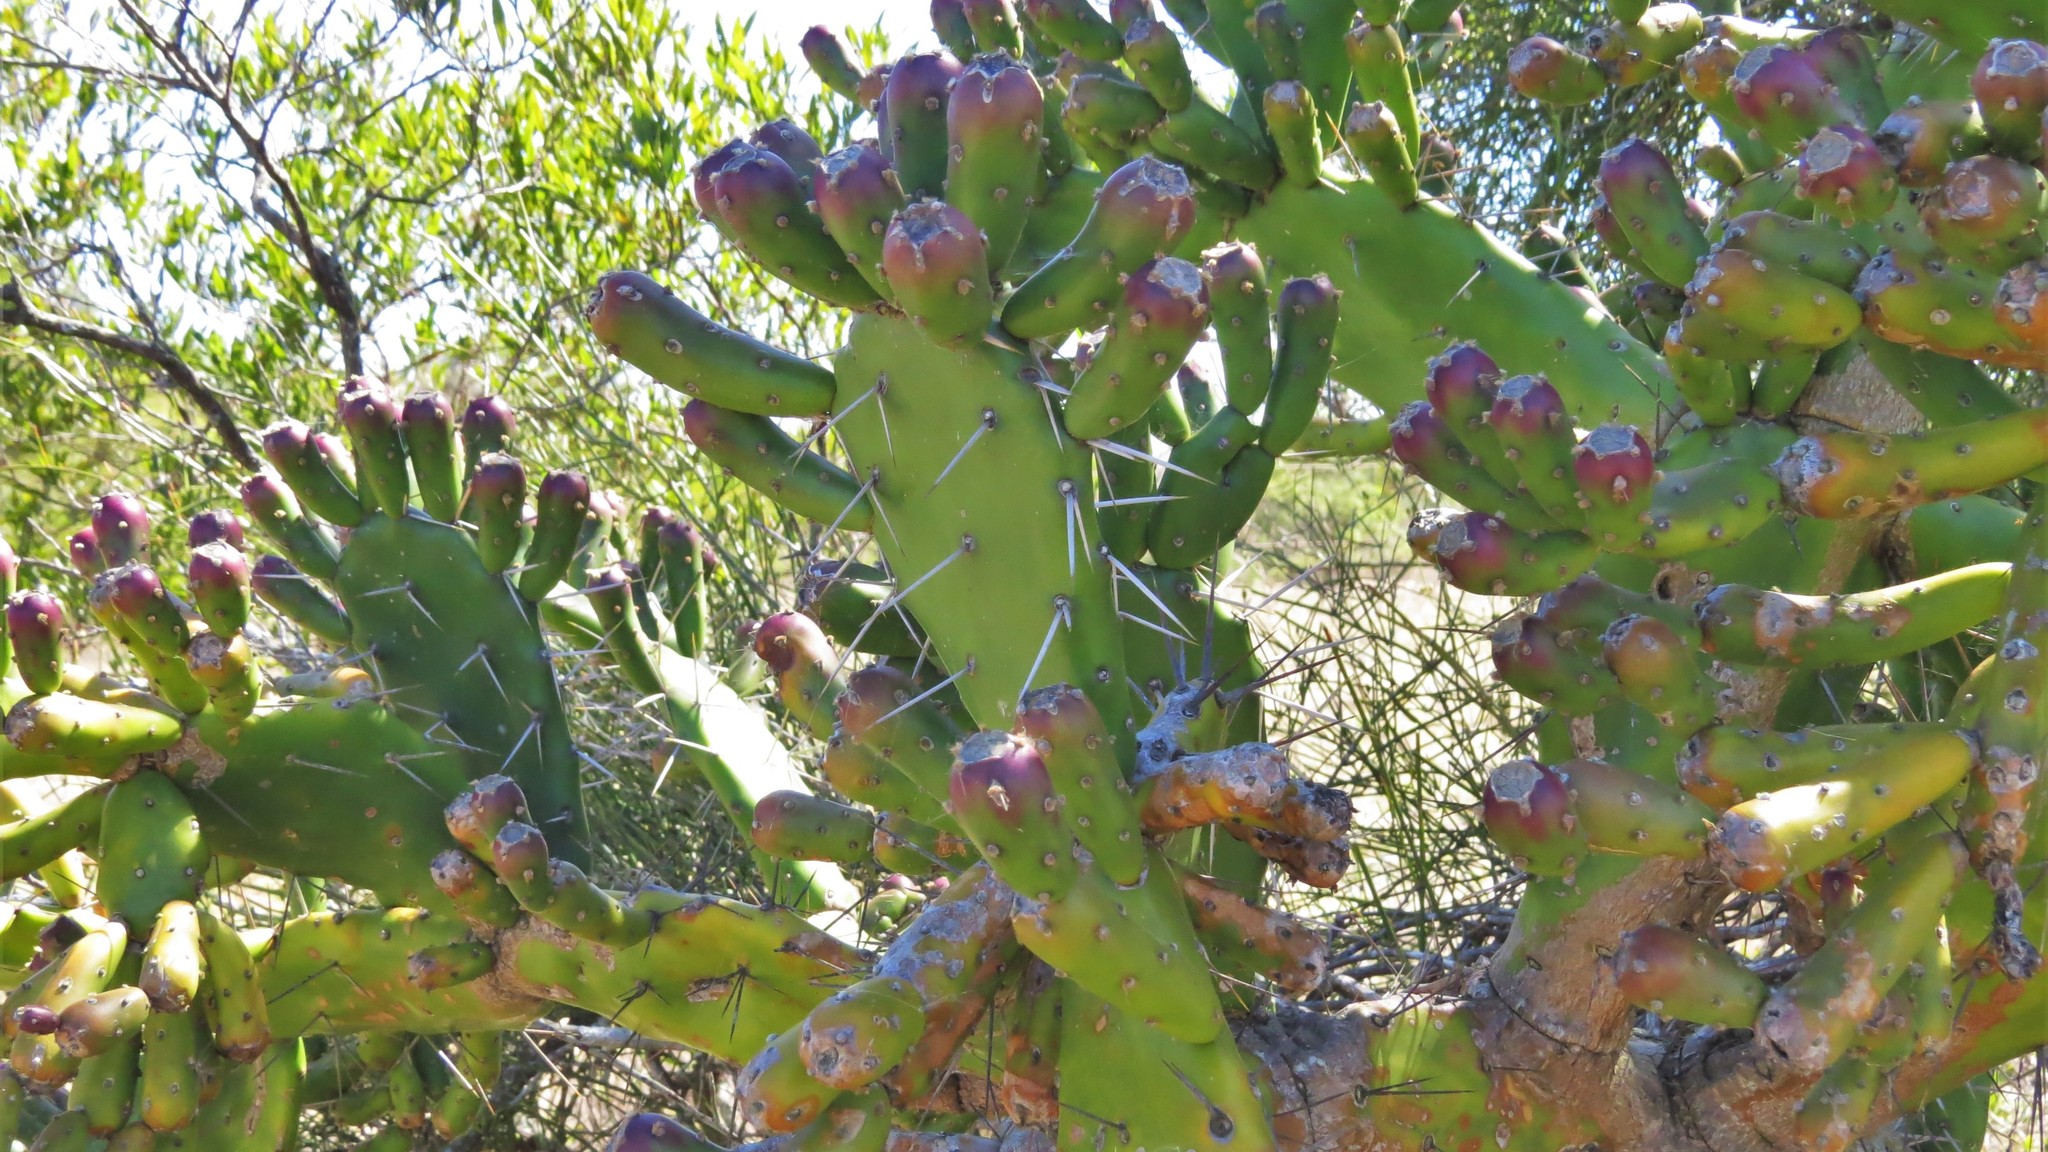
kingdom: Plantae
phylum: Tracheophyta
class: Magnoliopsida
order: Caryophyllales
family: Cactaceae
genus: Opuntia
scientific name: Opuntia arechavaletae
